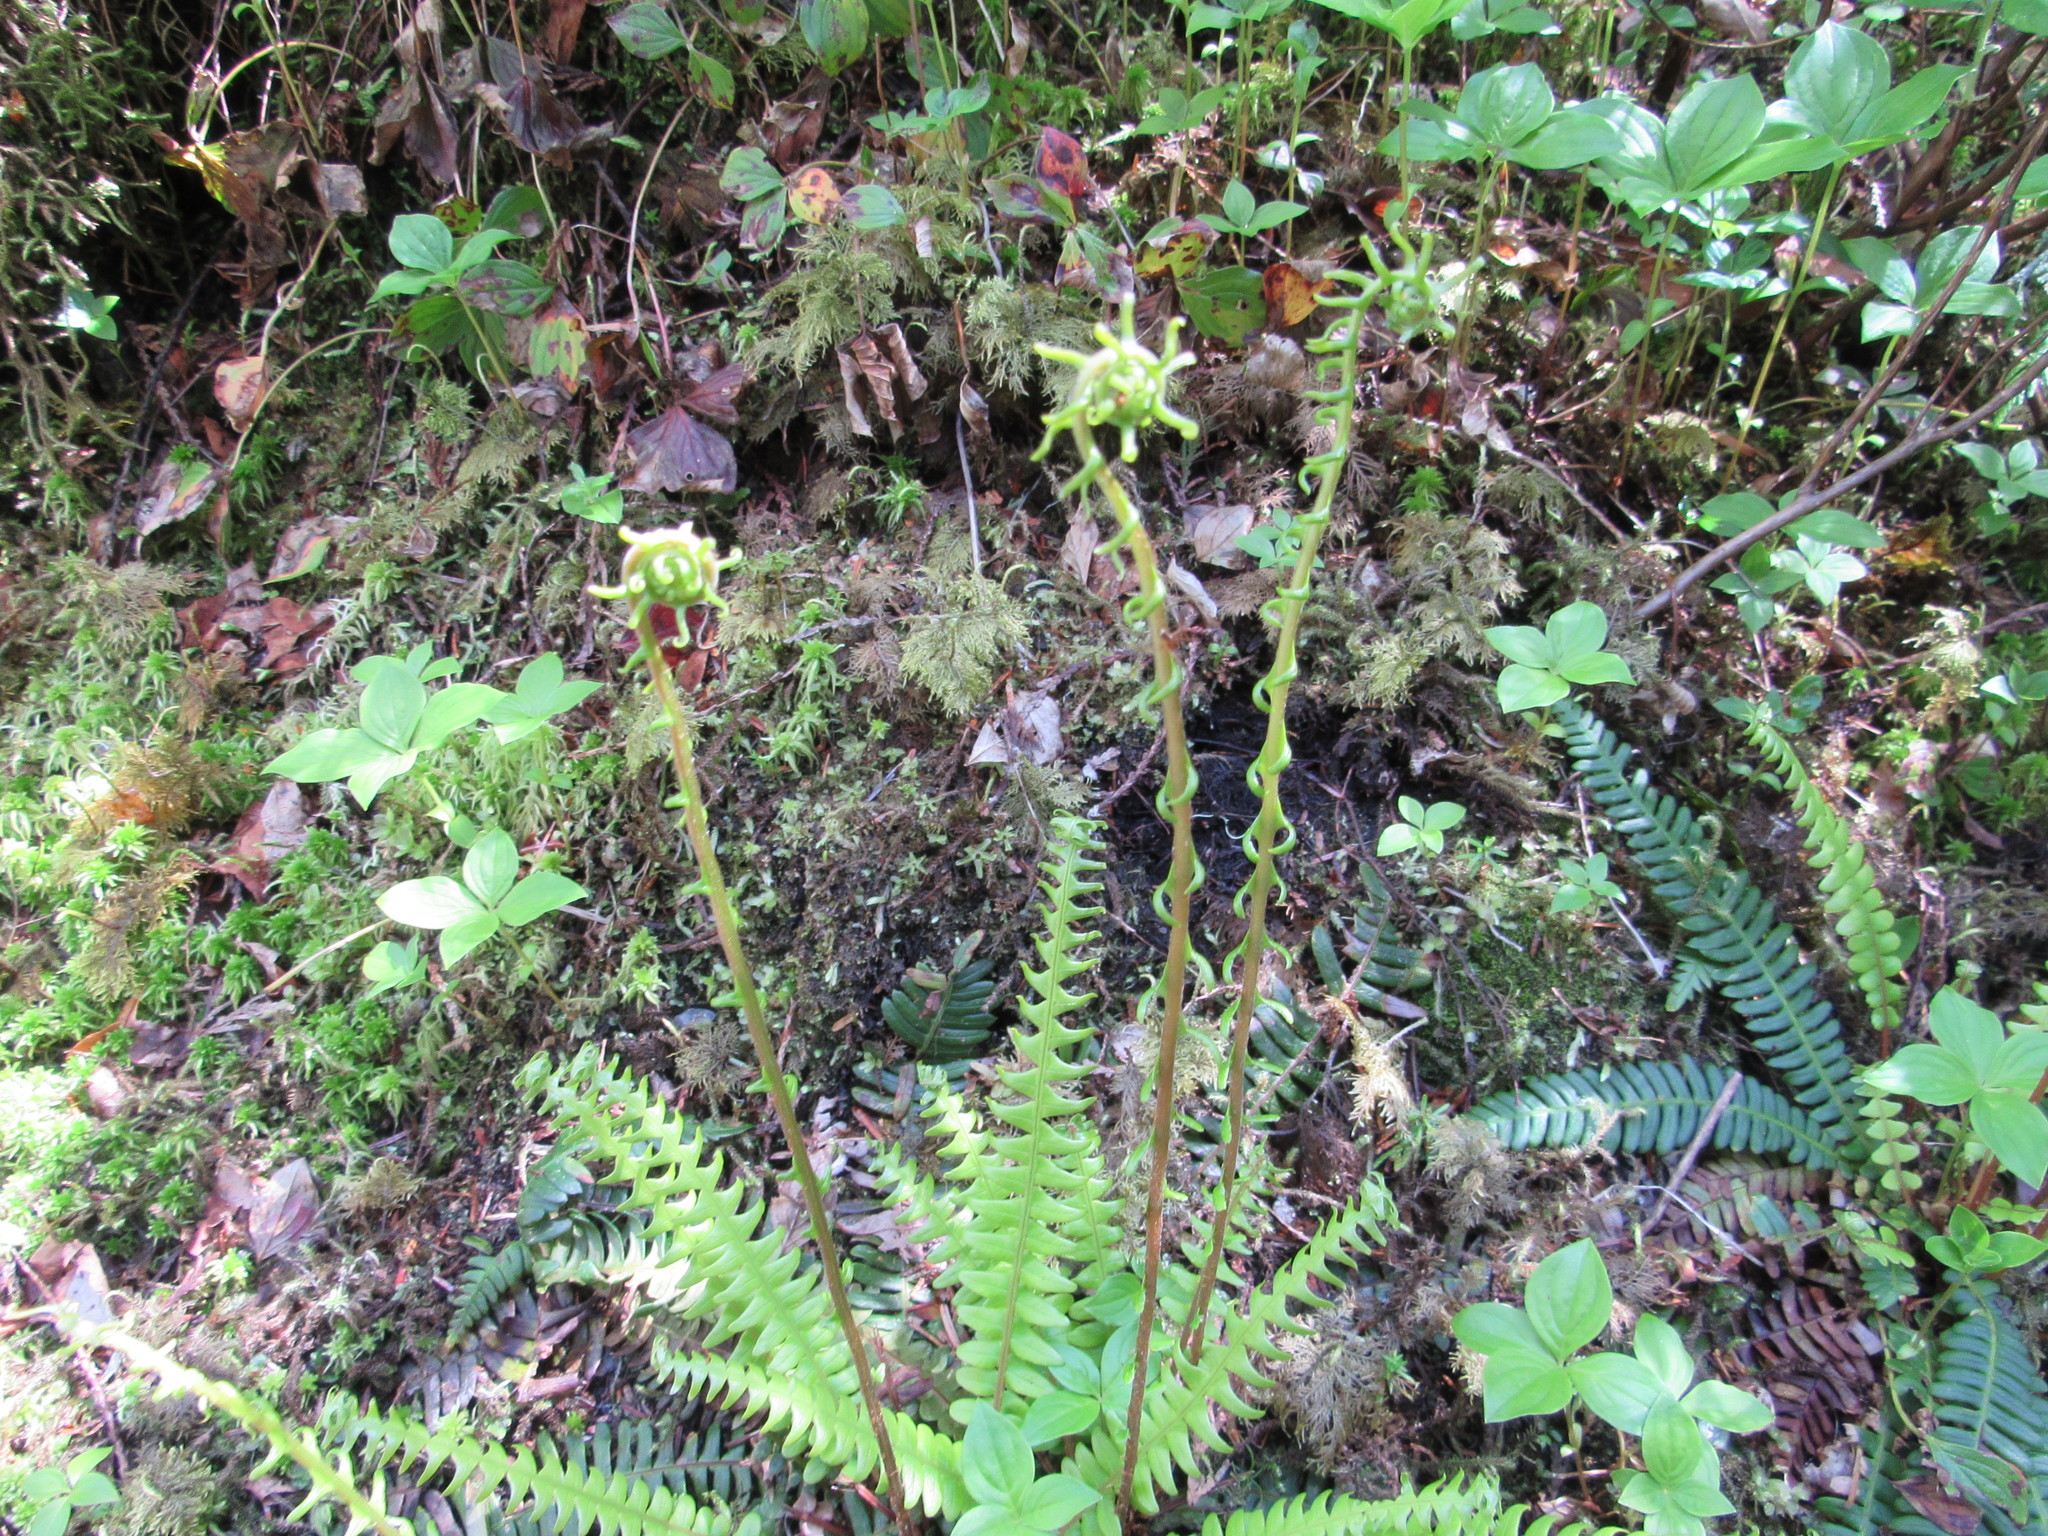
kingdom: Plantae
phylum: Tracheophyta
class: Polypodiopsida
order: Polypodiales
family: Blechnaceae
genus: Struthiopteris
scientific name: Struthiopteris spicant
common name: Deer fern
